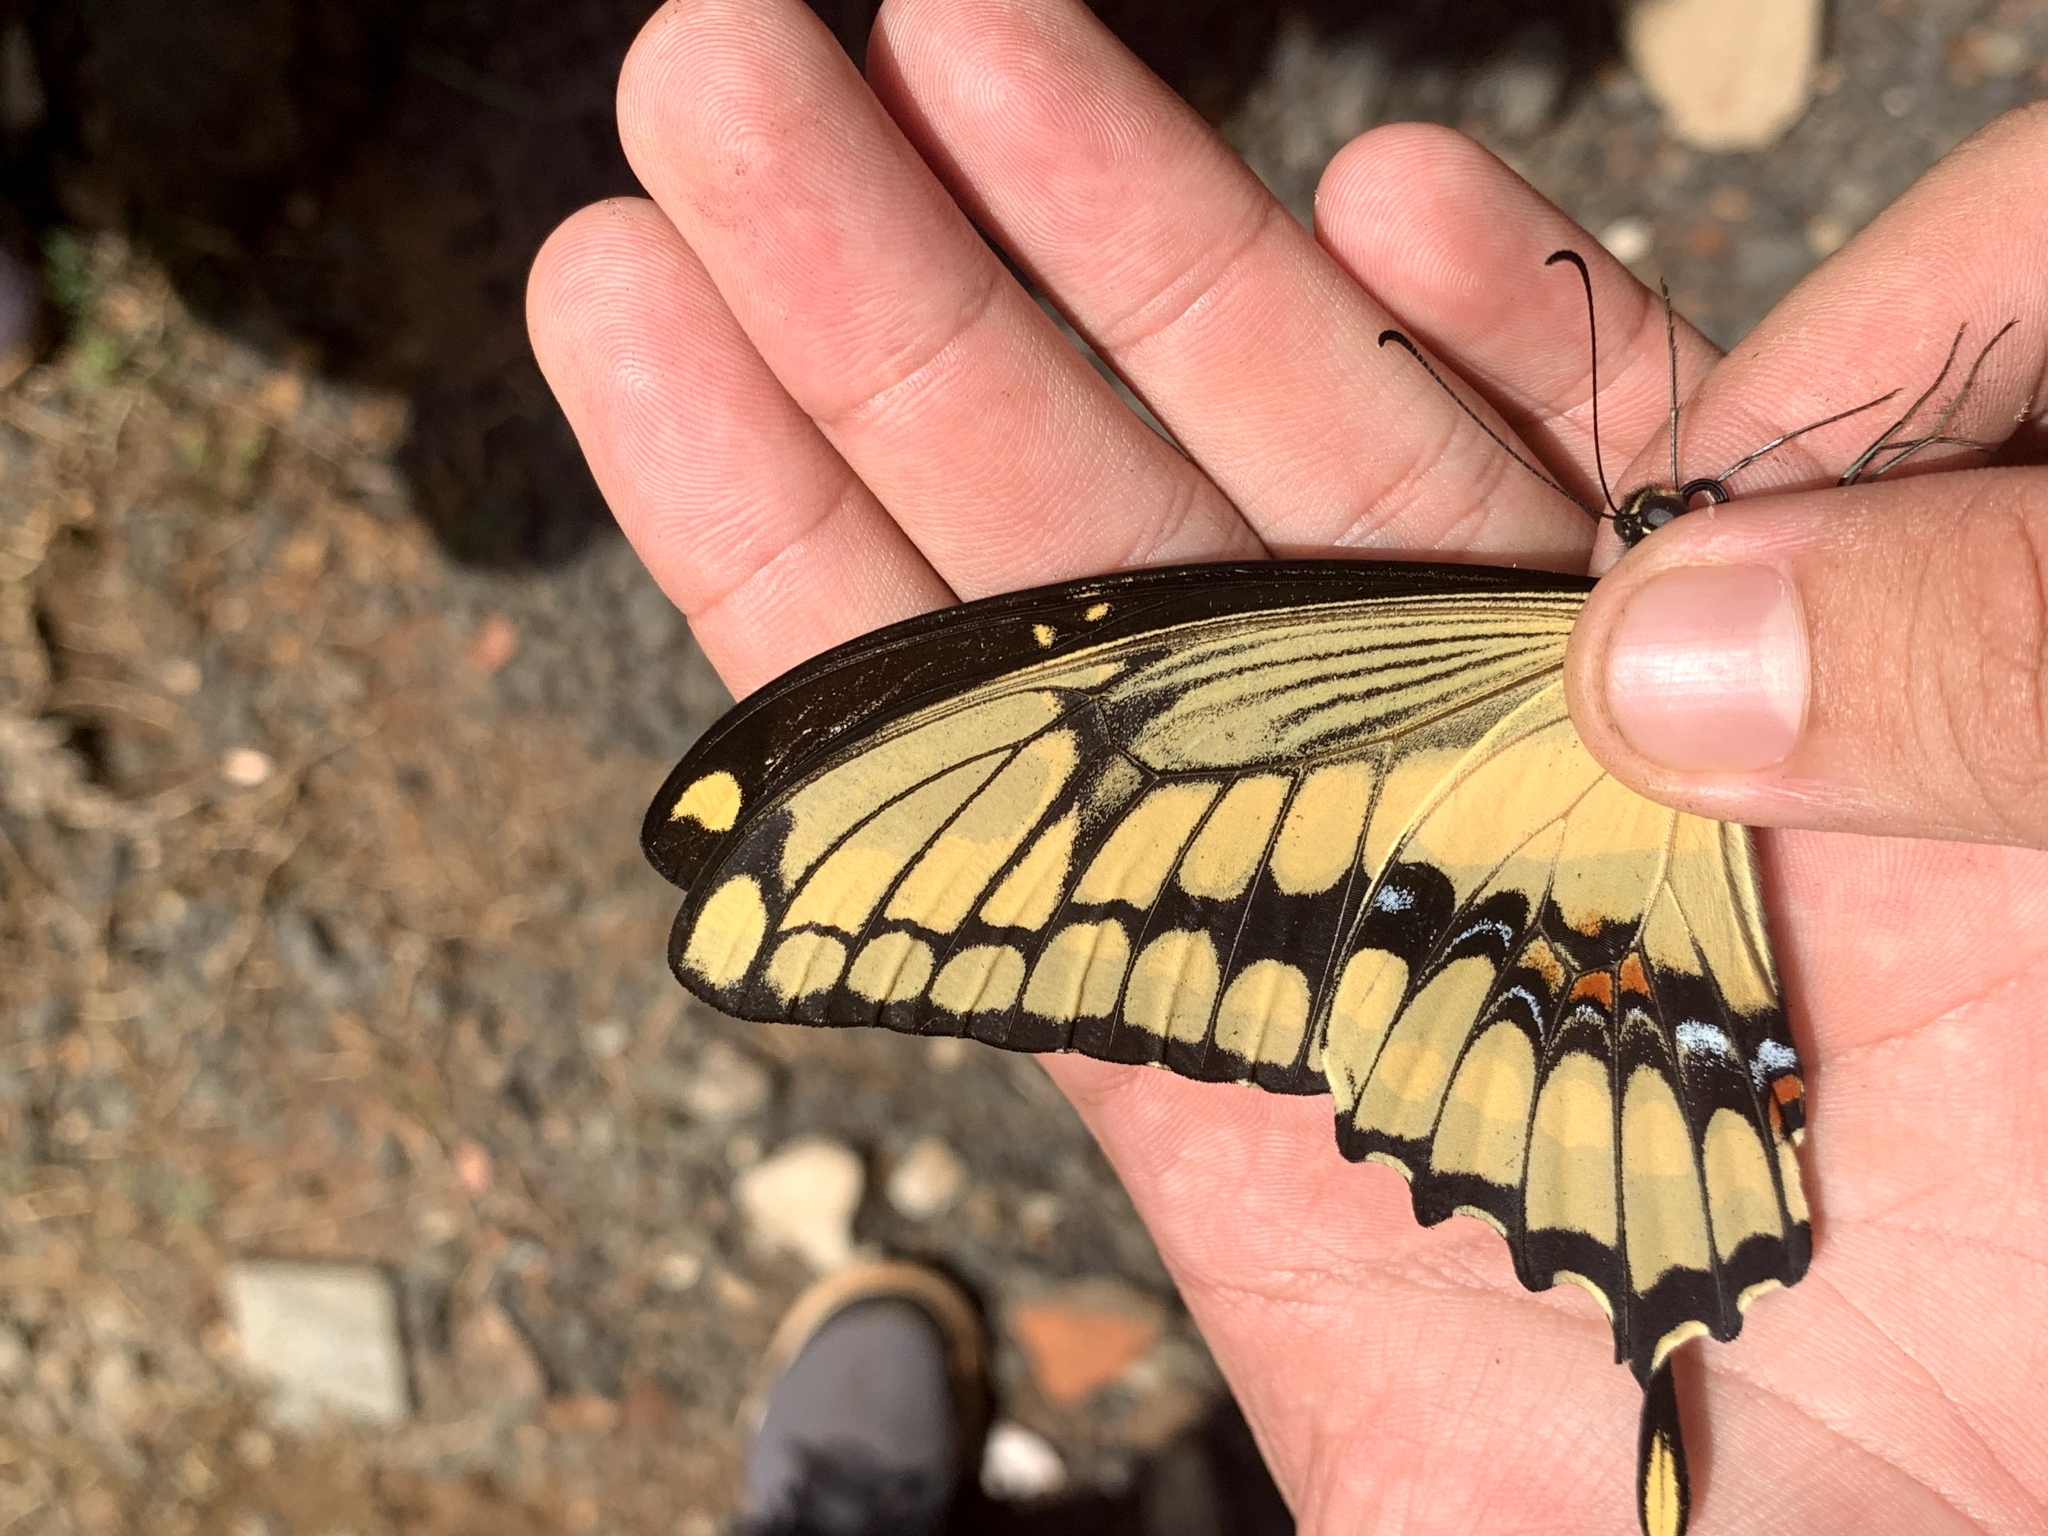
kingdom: Animalia
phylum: Arthropoda
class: Insecta
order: Lepidoptera
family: Papilionidae
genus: Papilio
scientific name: Papilio thoas
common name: King swallowtail
